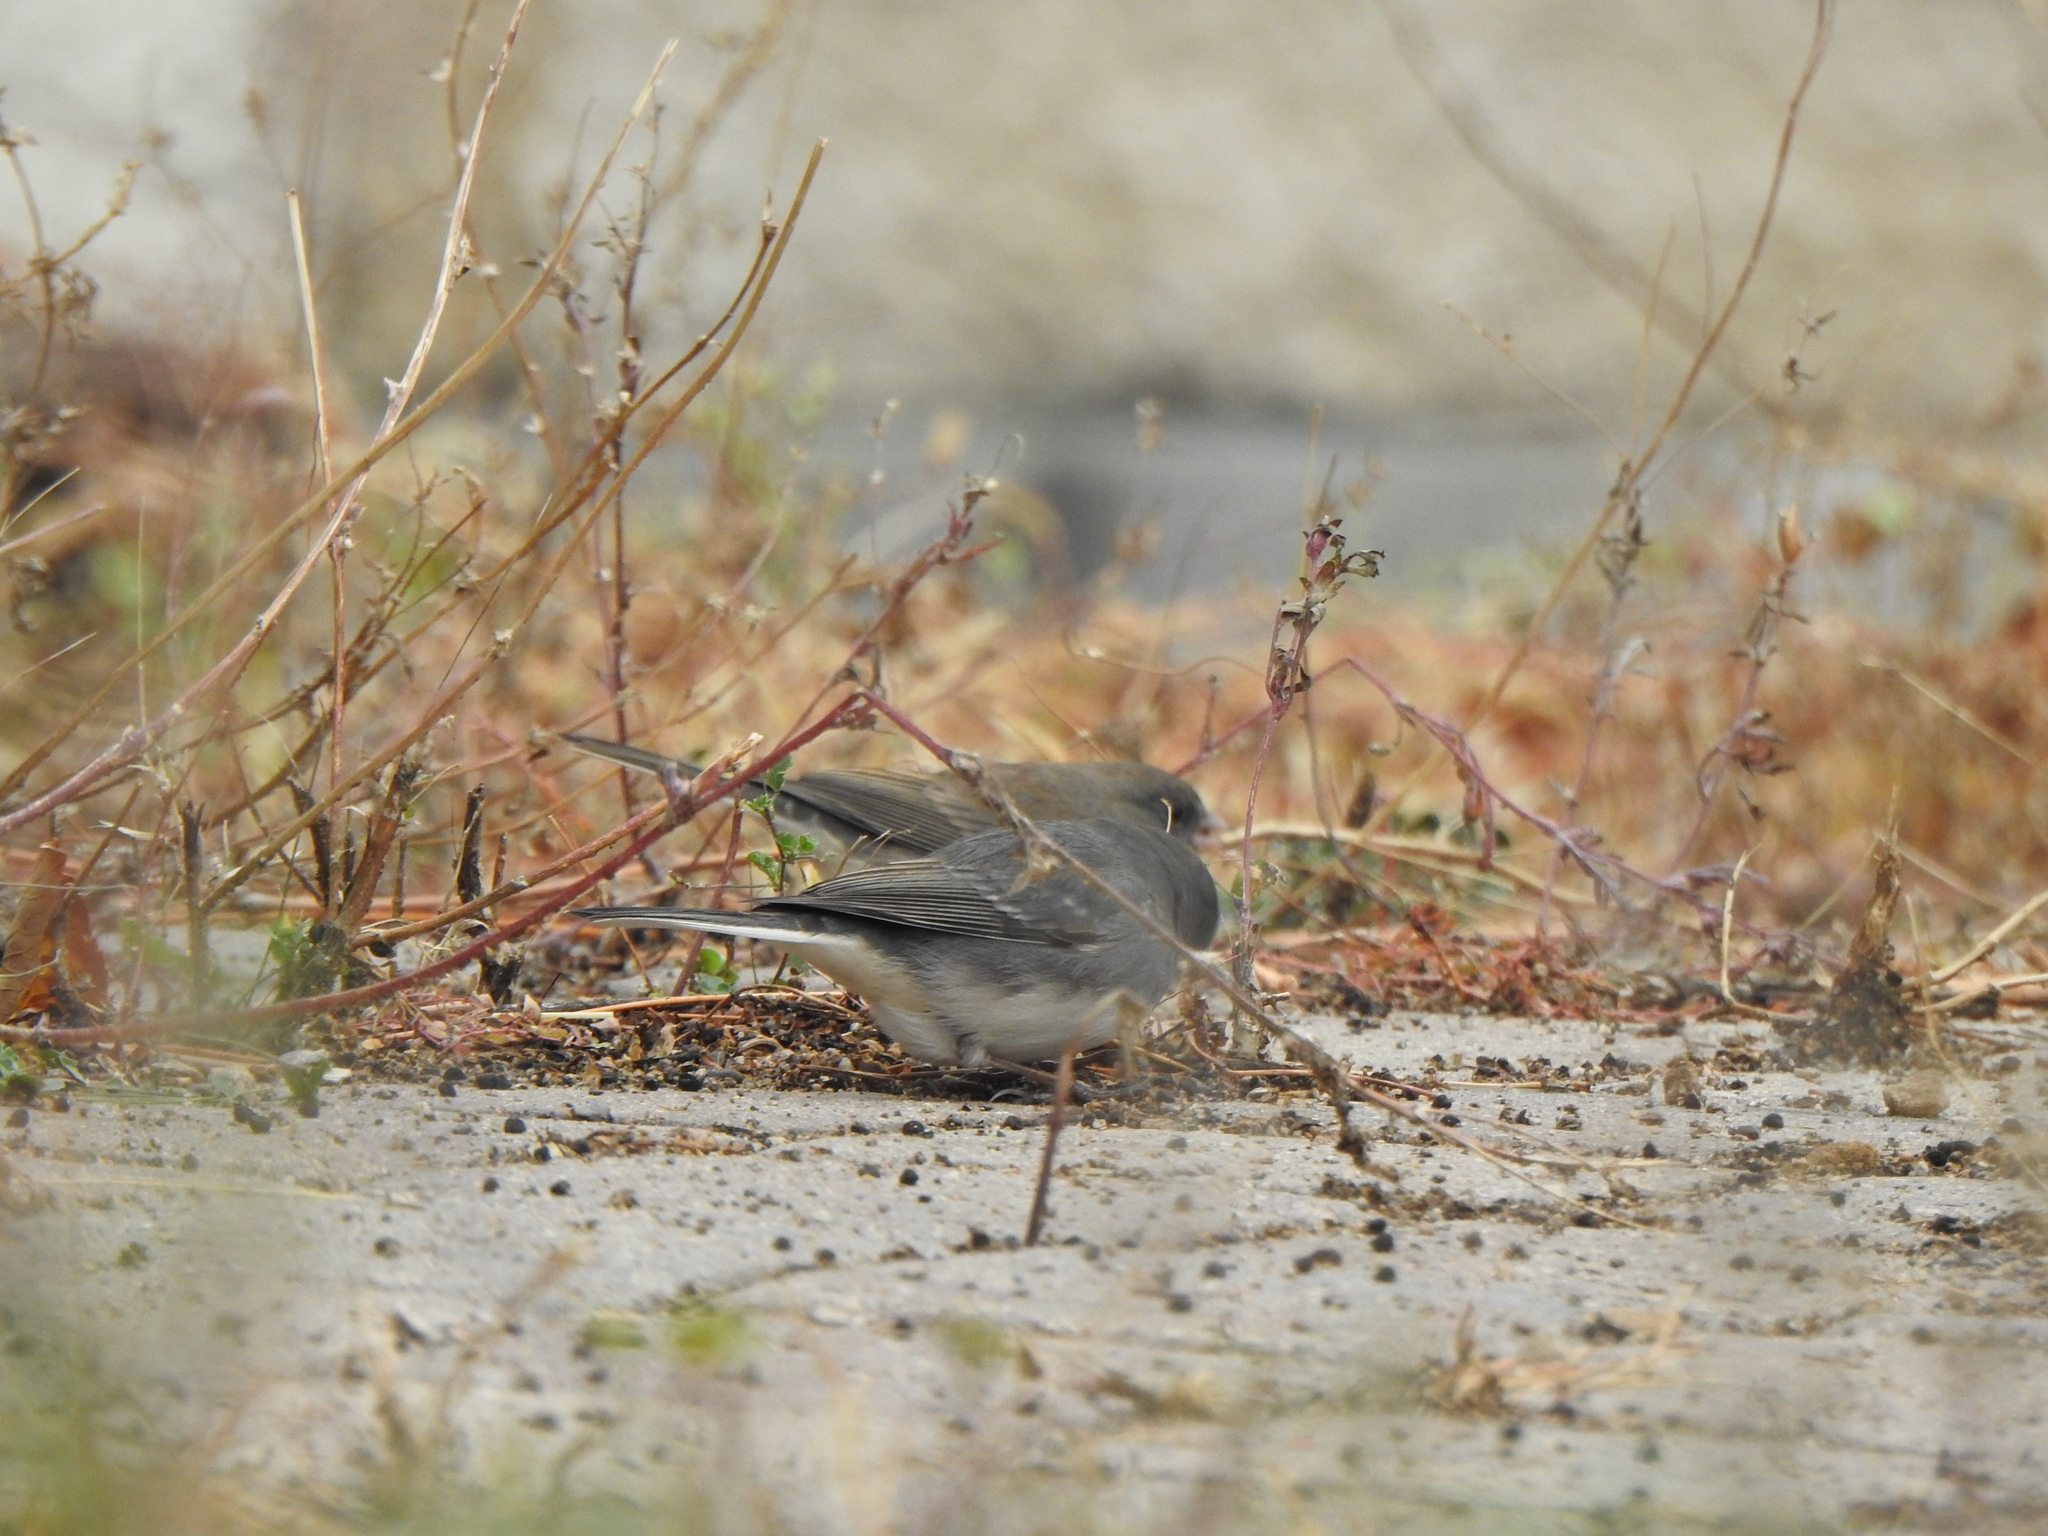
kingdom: Animalia
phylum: Chordata
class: Aves
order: Passeriformes
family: Passerellidae
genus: Junco
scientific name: Junco hyemalis
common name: Dark-eyed junco
